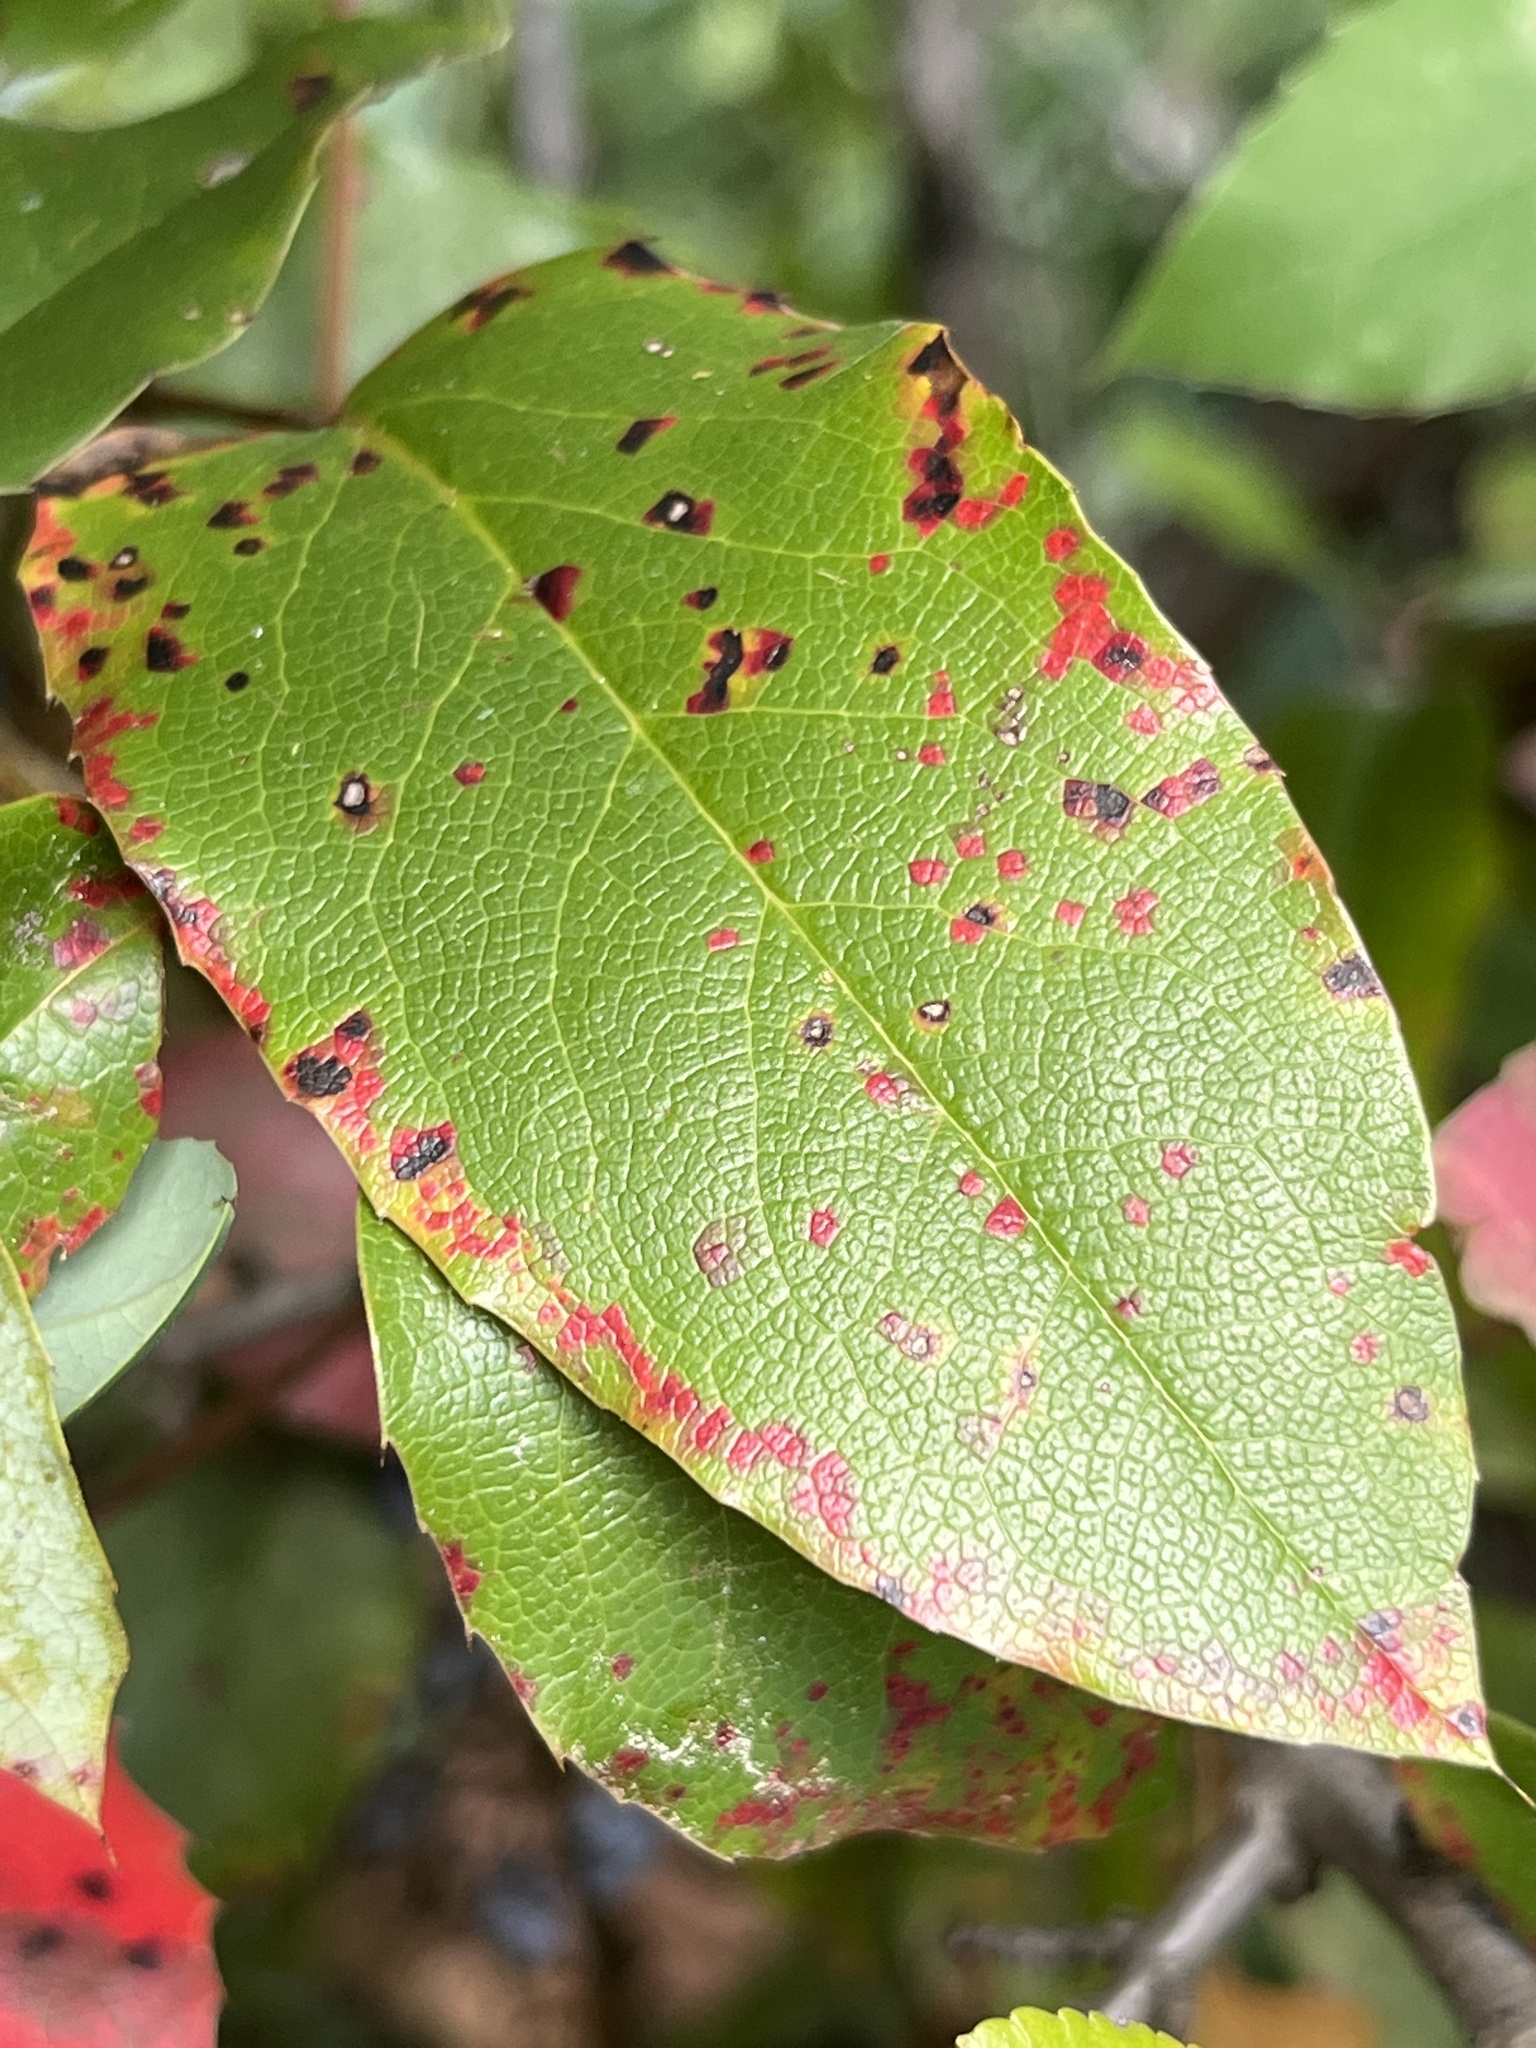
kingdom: Fungi
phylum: Basidiomycota
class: Pucciniomycetes
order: Pucciniales
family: Pucciniaceae
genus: Cumminsiella
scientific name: Cumminsiella mirabilissima
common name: Mahonia rust
